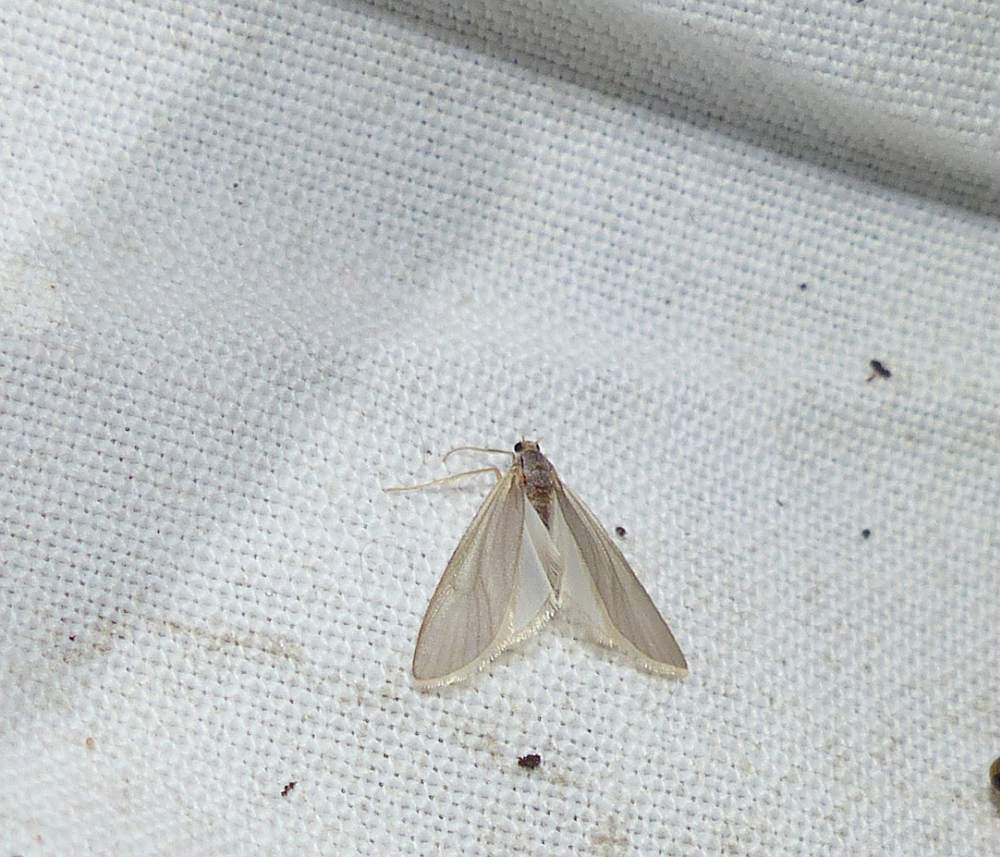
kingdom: Animalia
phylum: Arthropoda
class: Insecta
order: Lepidoptera
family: Crambidae
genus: Acentria
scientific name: Acentria ephemerella
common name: European water moth
